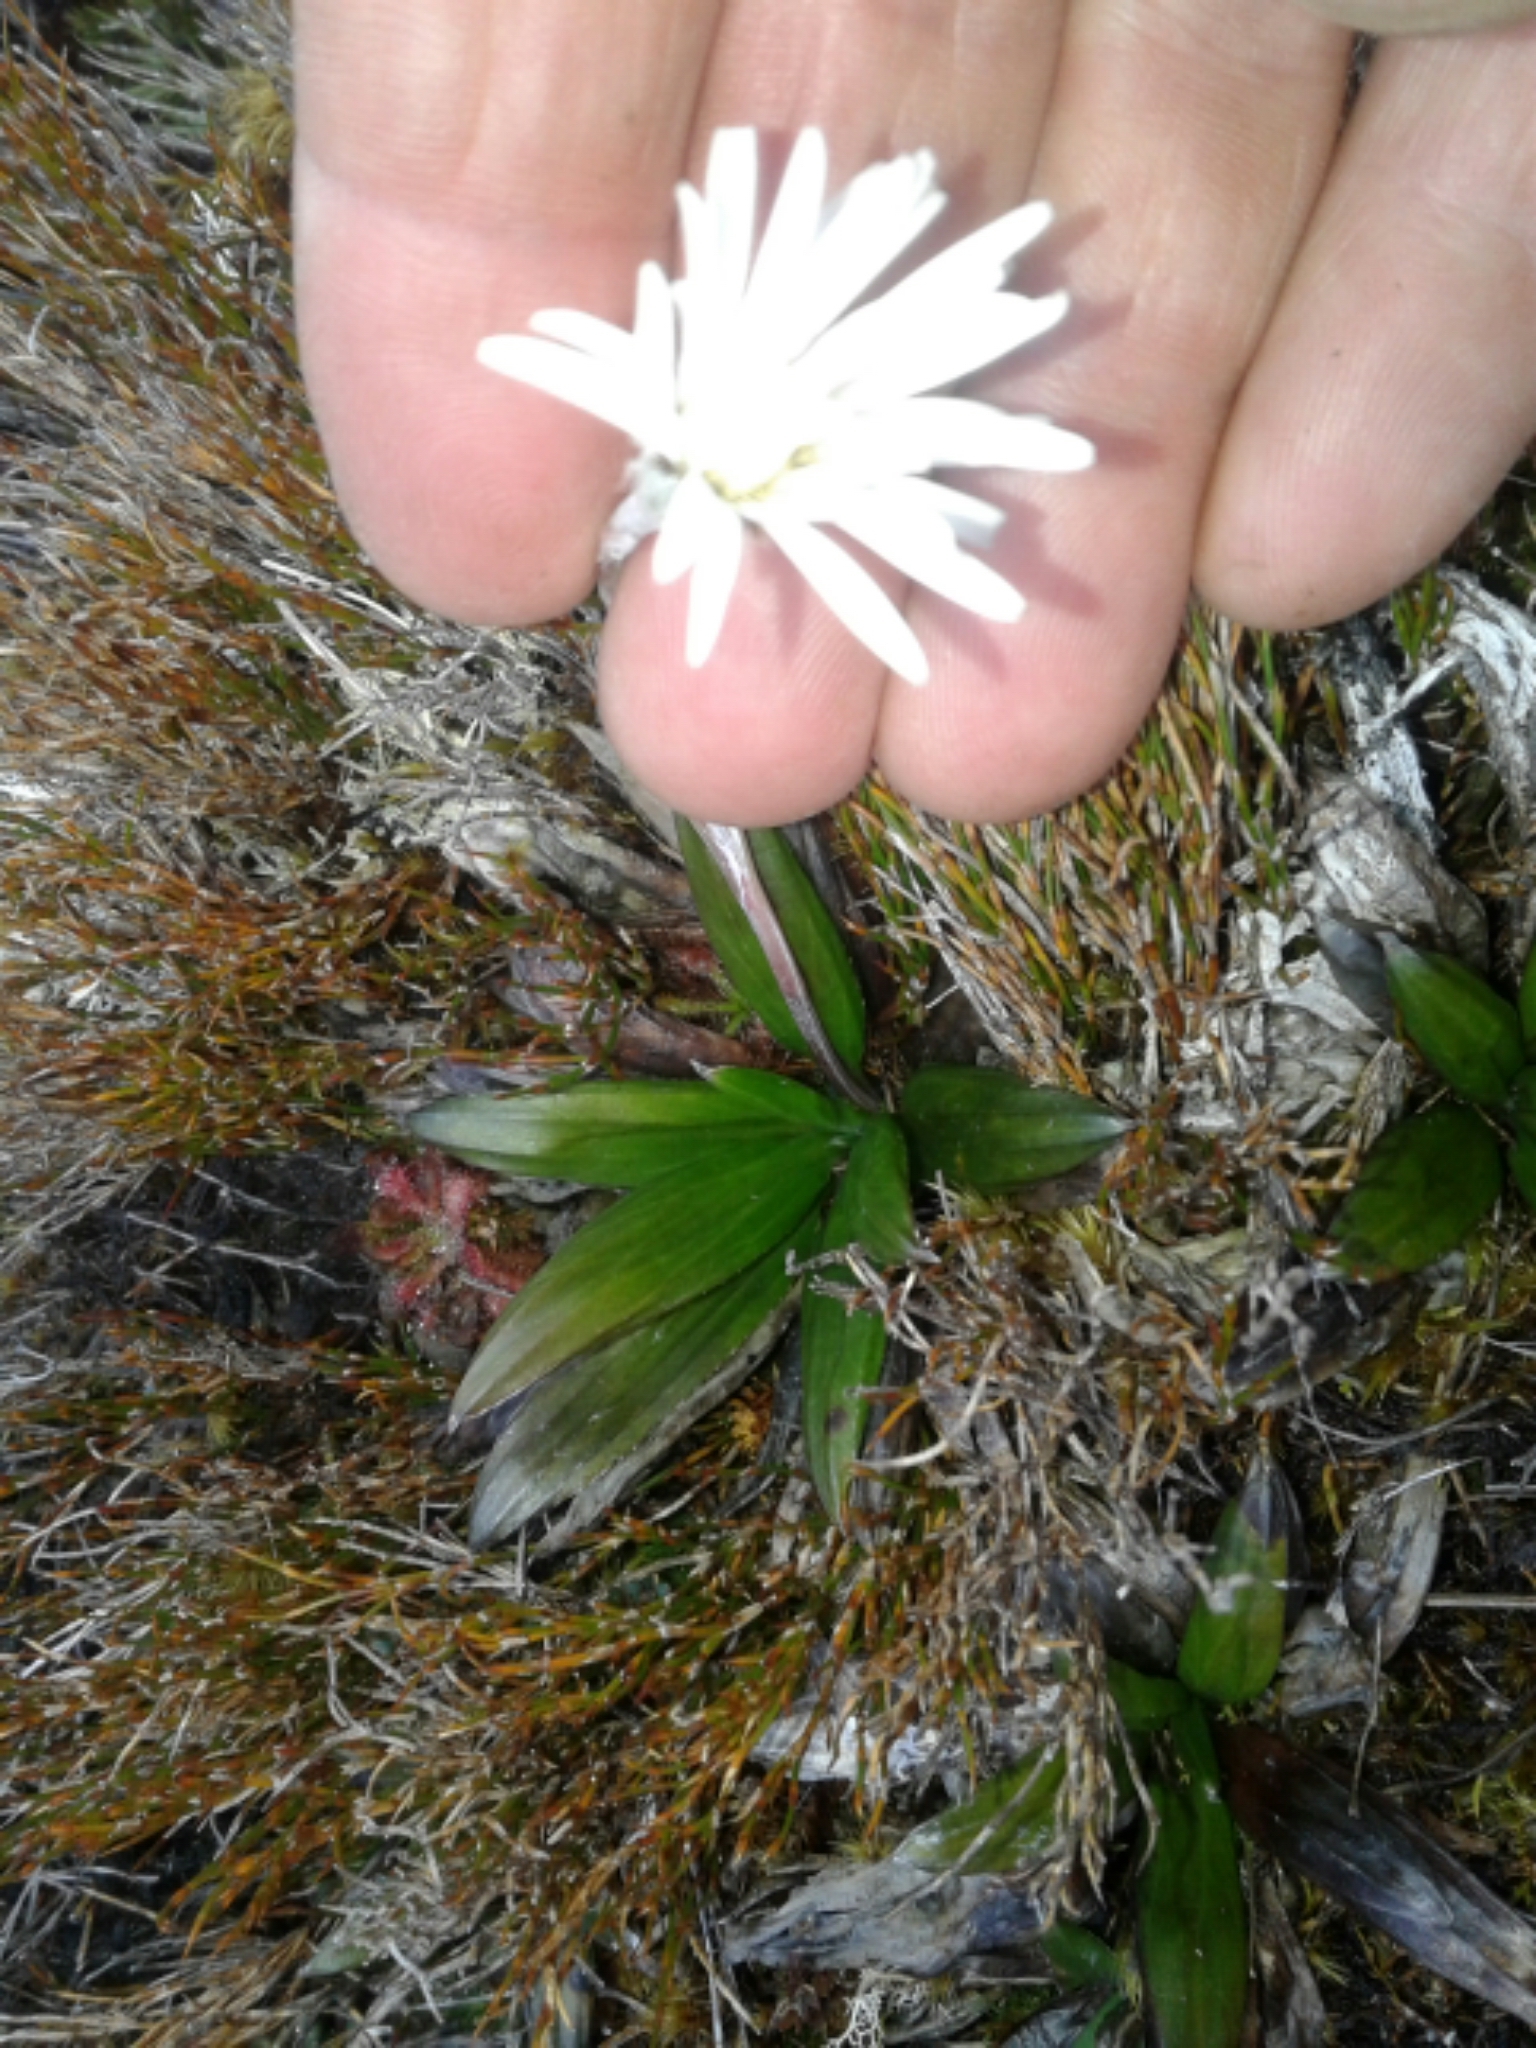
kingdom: Plantae
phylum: Tracheophyta
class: Magnoliopsida
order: Asterales
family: Asteraceae
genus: Celmisia
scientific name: Celmisia dubia
